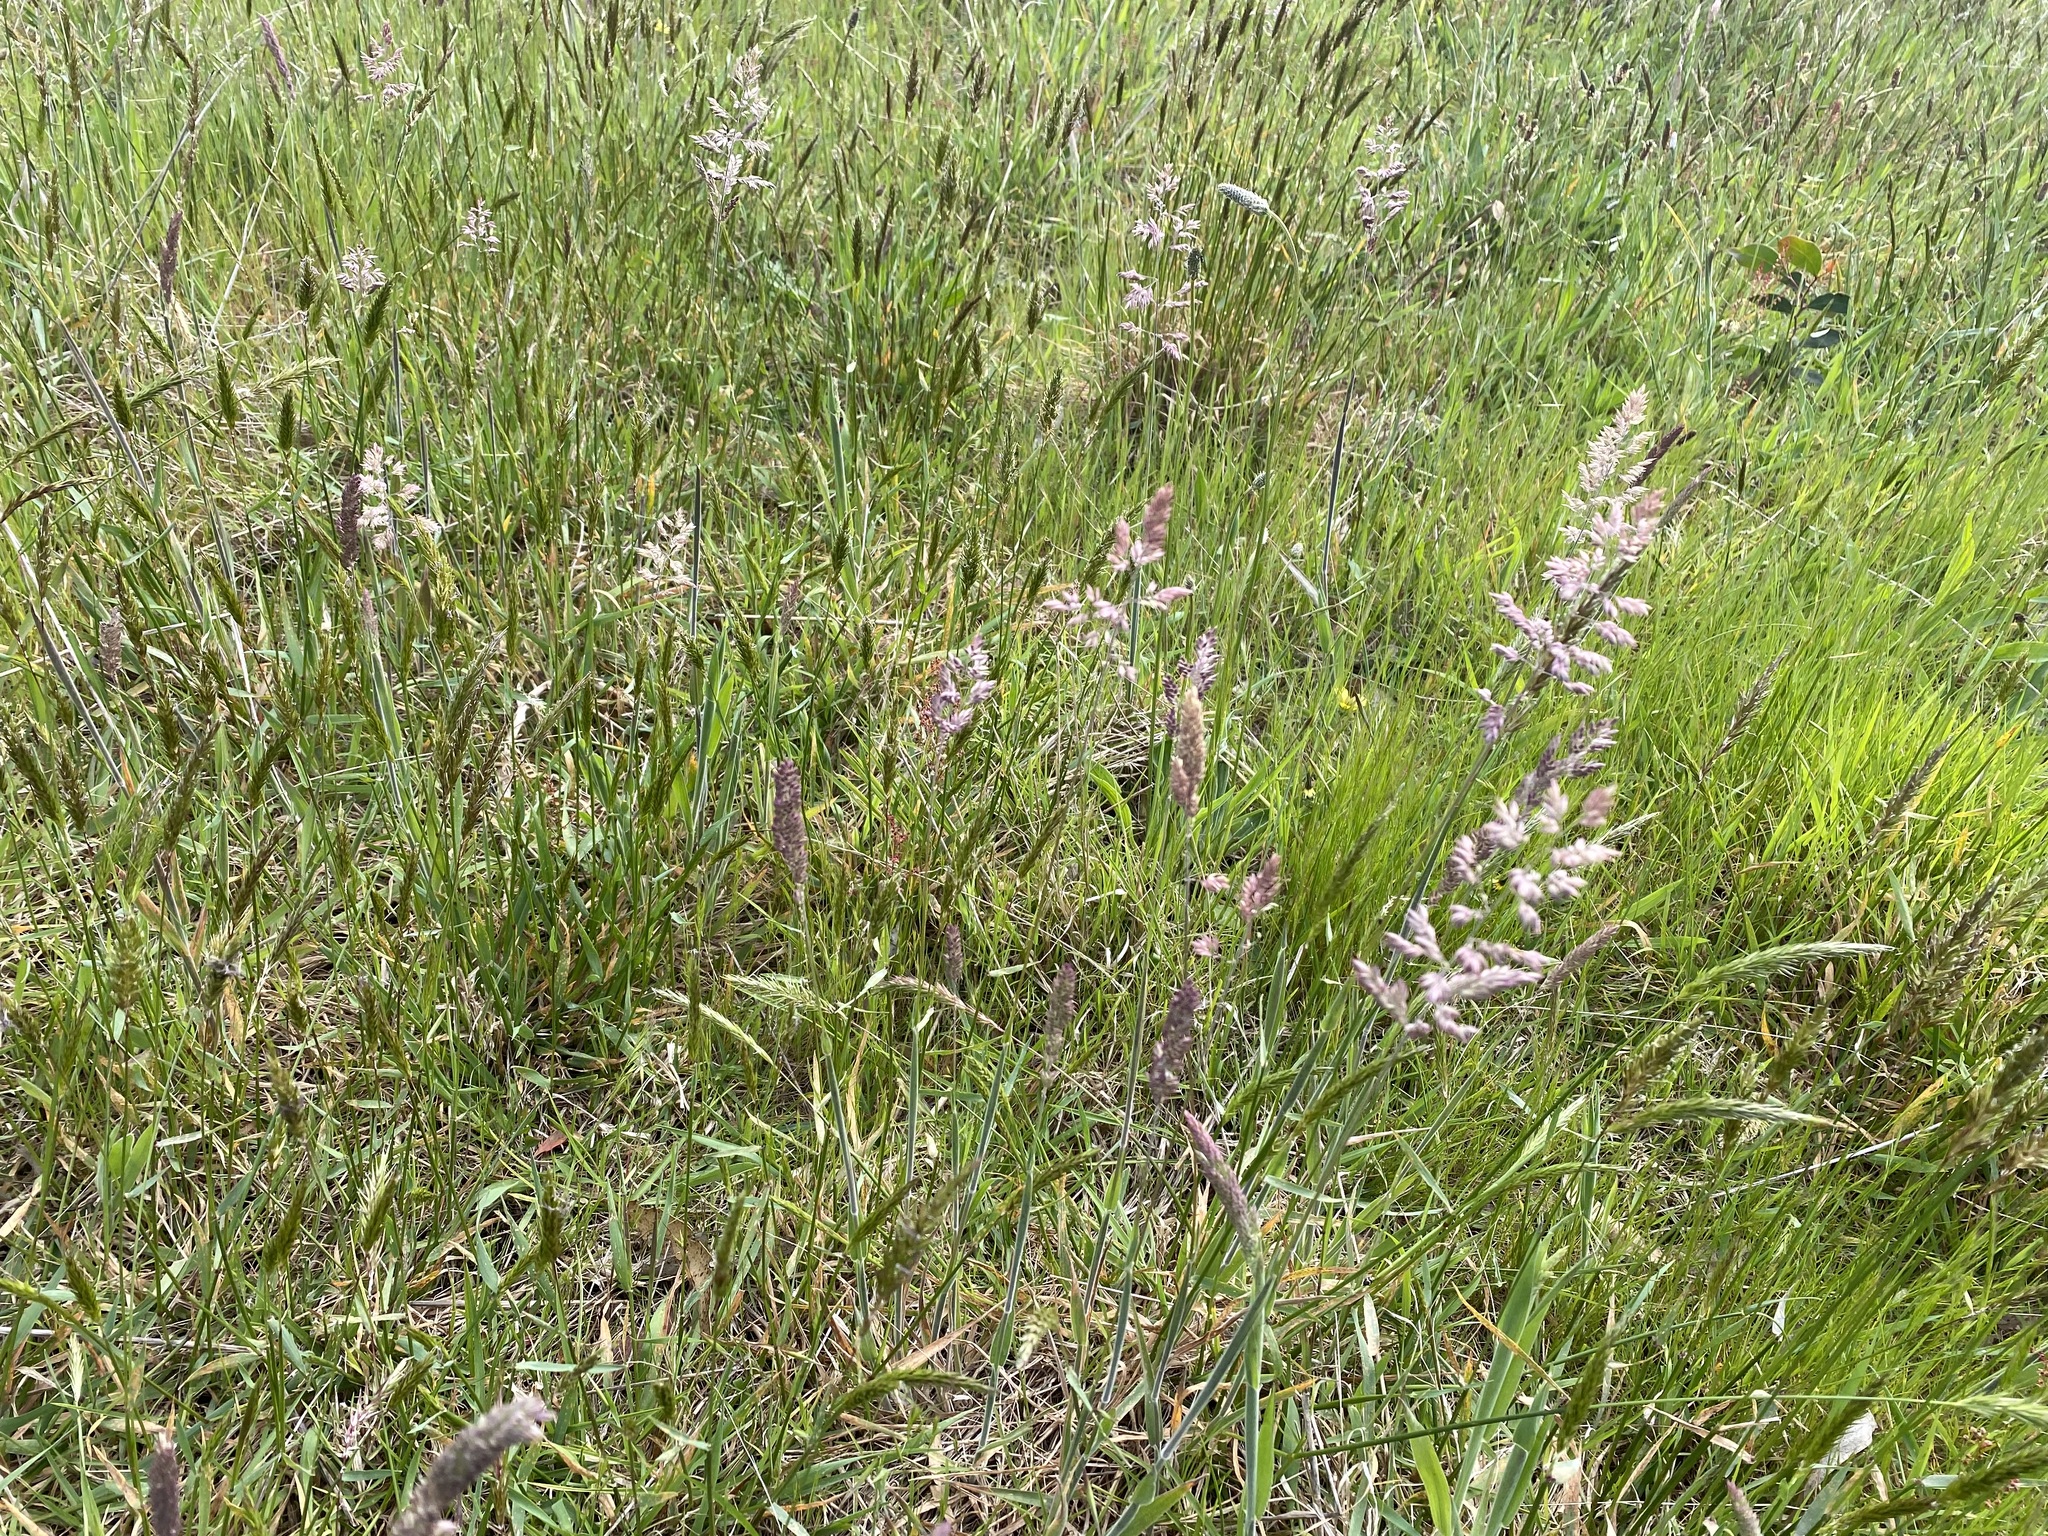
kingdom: Plantae
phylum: Tracheophyta
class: Liliopsida
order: Poales
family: Poaceae
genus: Holcus
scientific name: Holcus lanatus
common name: Yorkshire-fog
